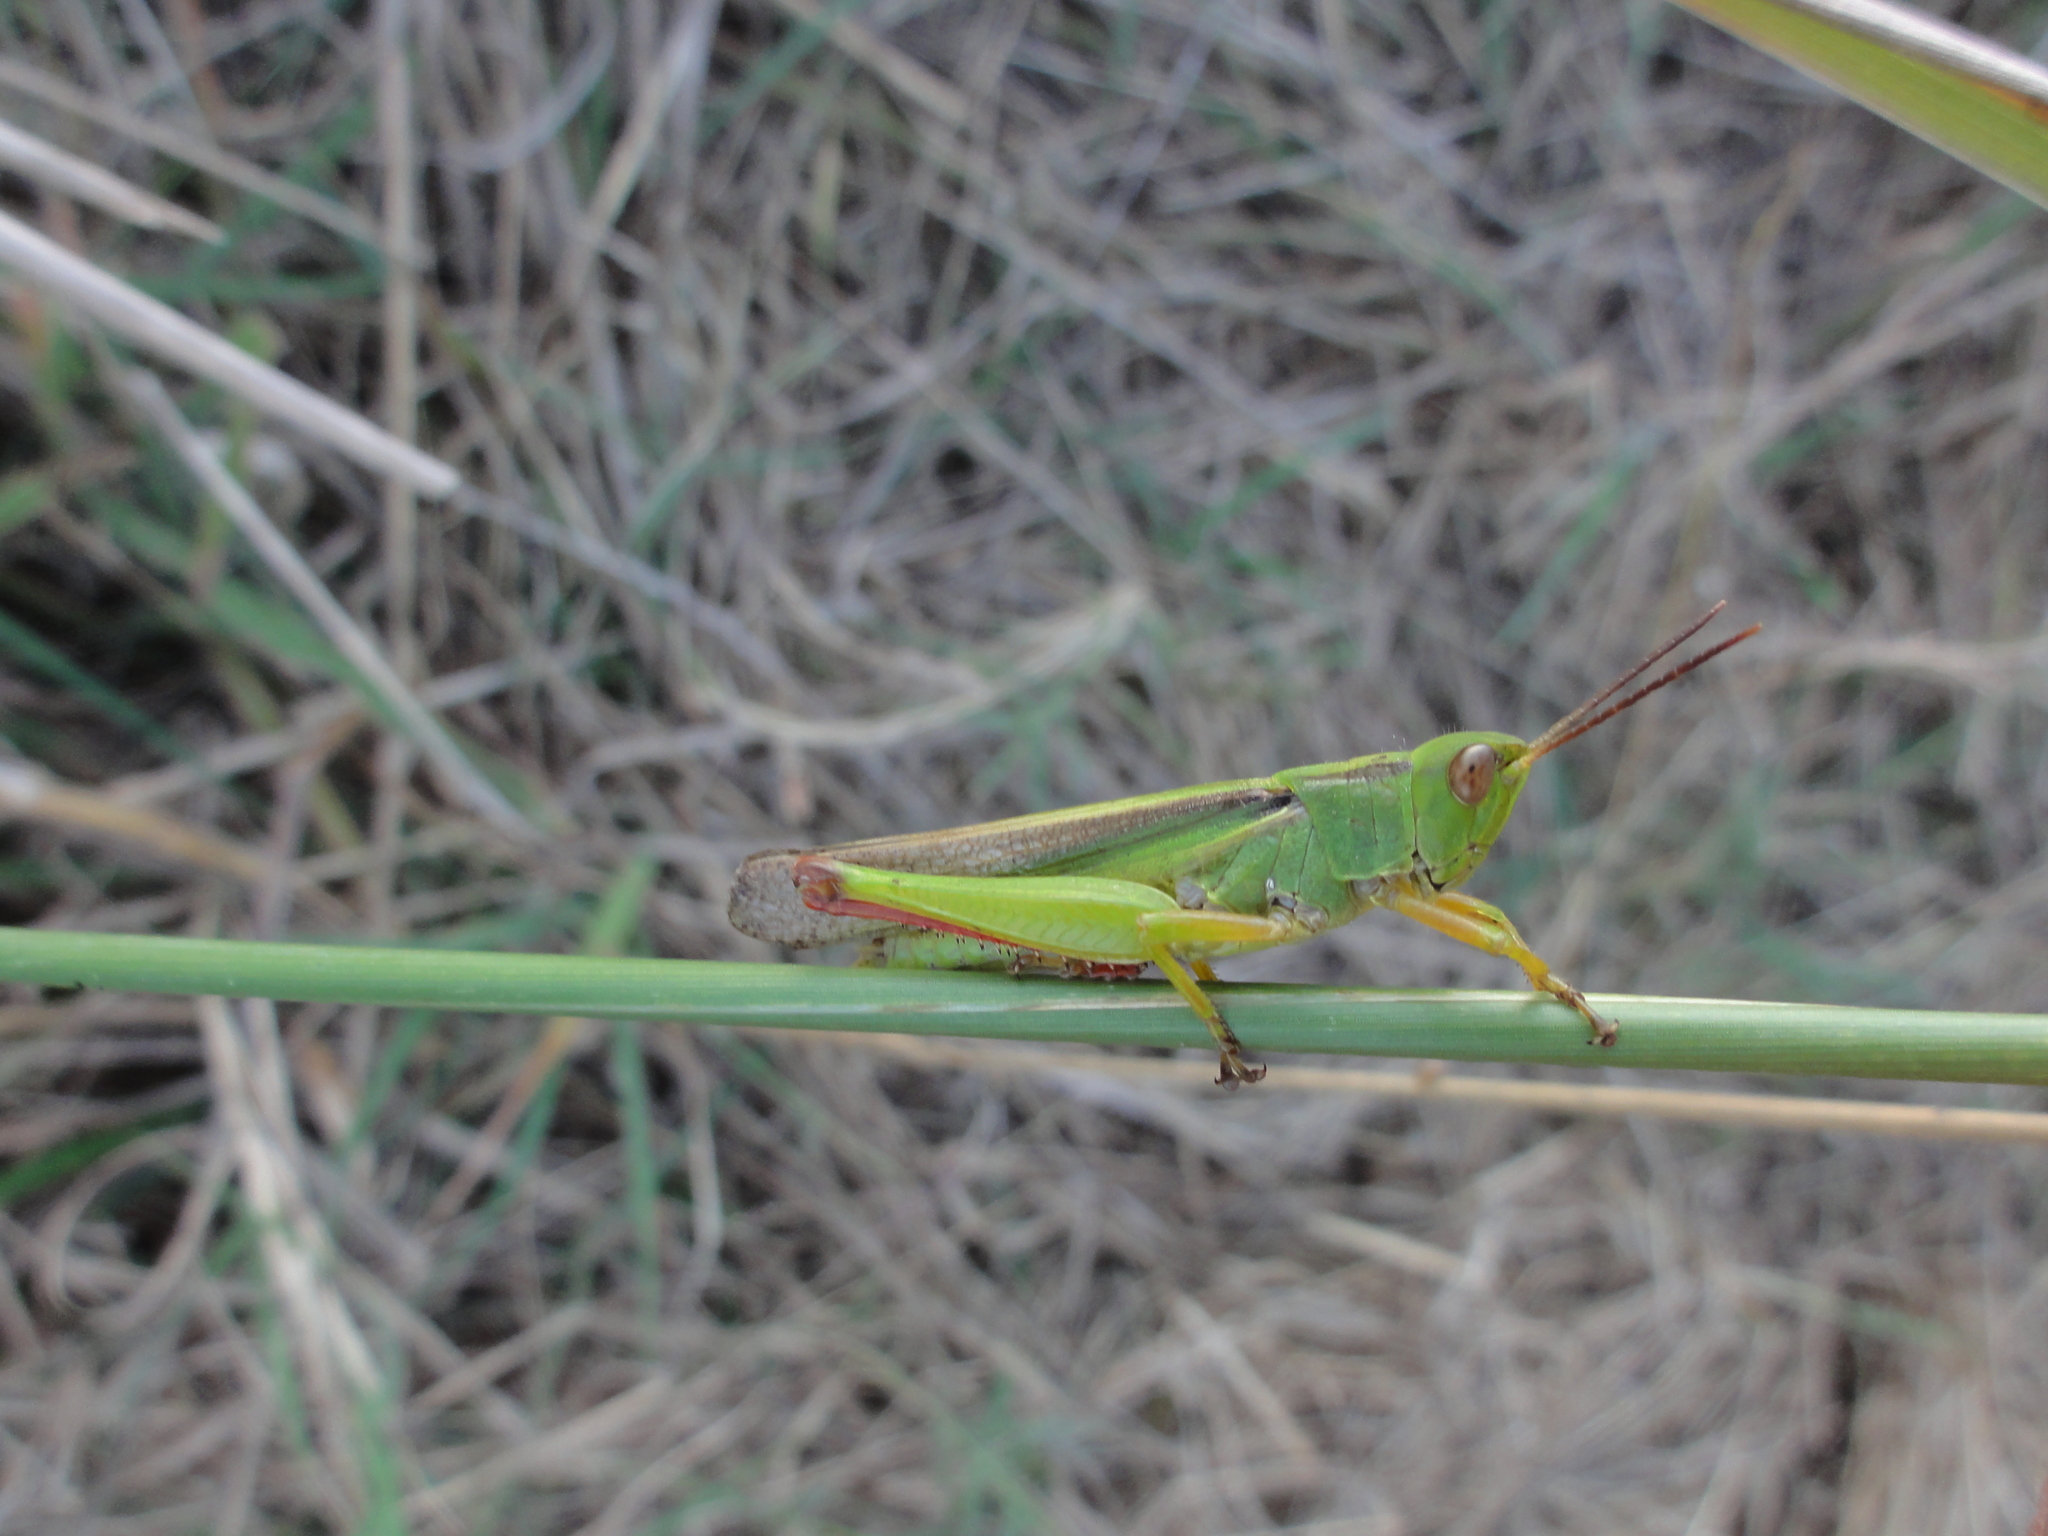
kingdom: Animalia
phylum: Arthropoda
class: Insecta
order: Orthoptera
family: Acrididae
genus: Paracinema
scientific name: Paracinema tricolor
